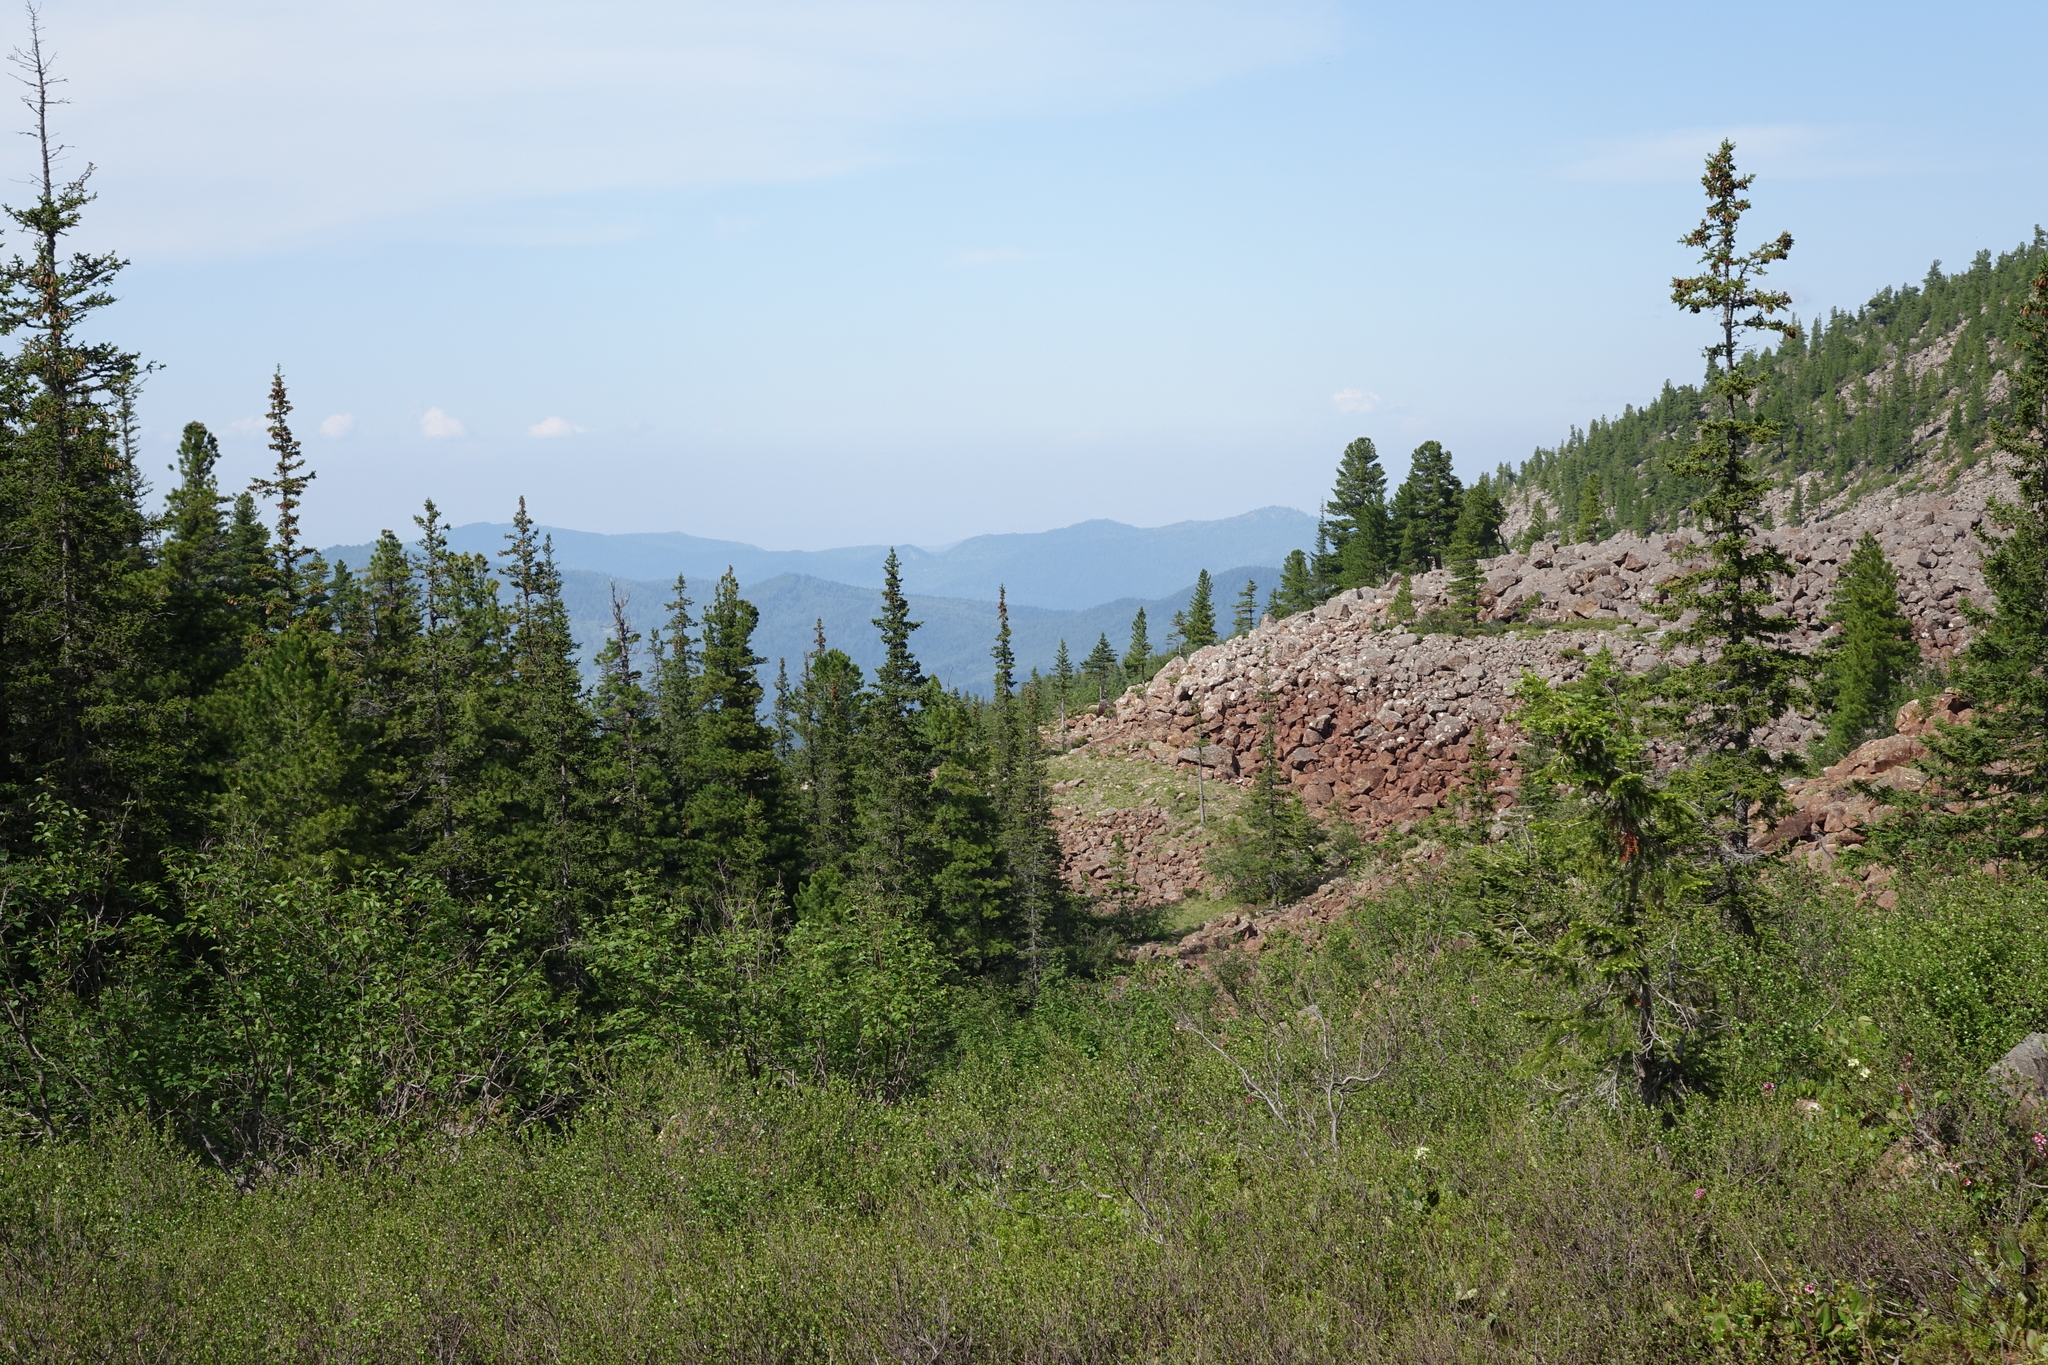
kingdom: Plantae
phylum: Tracheophyta
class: Pinopsida
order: Pinales
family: Pinaceae
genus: Picea
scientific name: Picea obovata
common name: Siberian spruce
